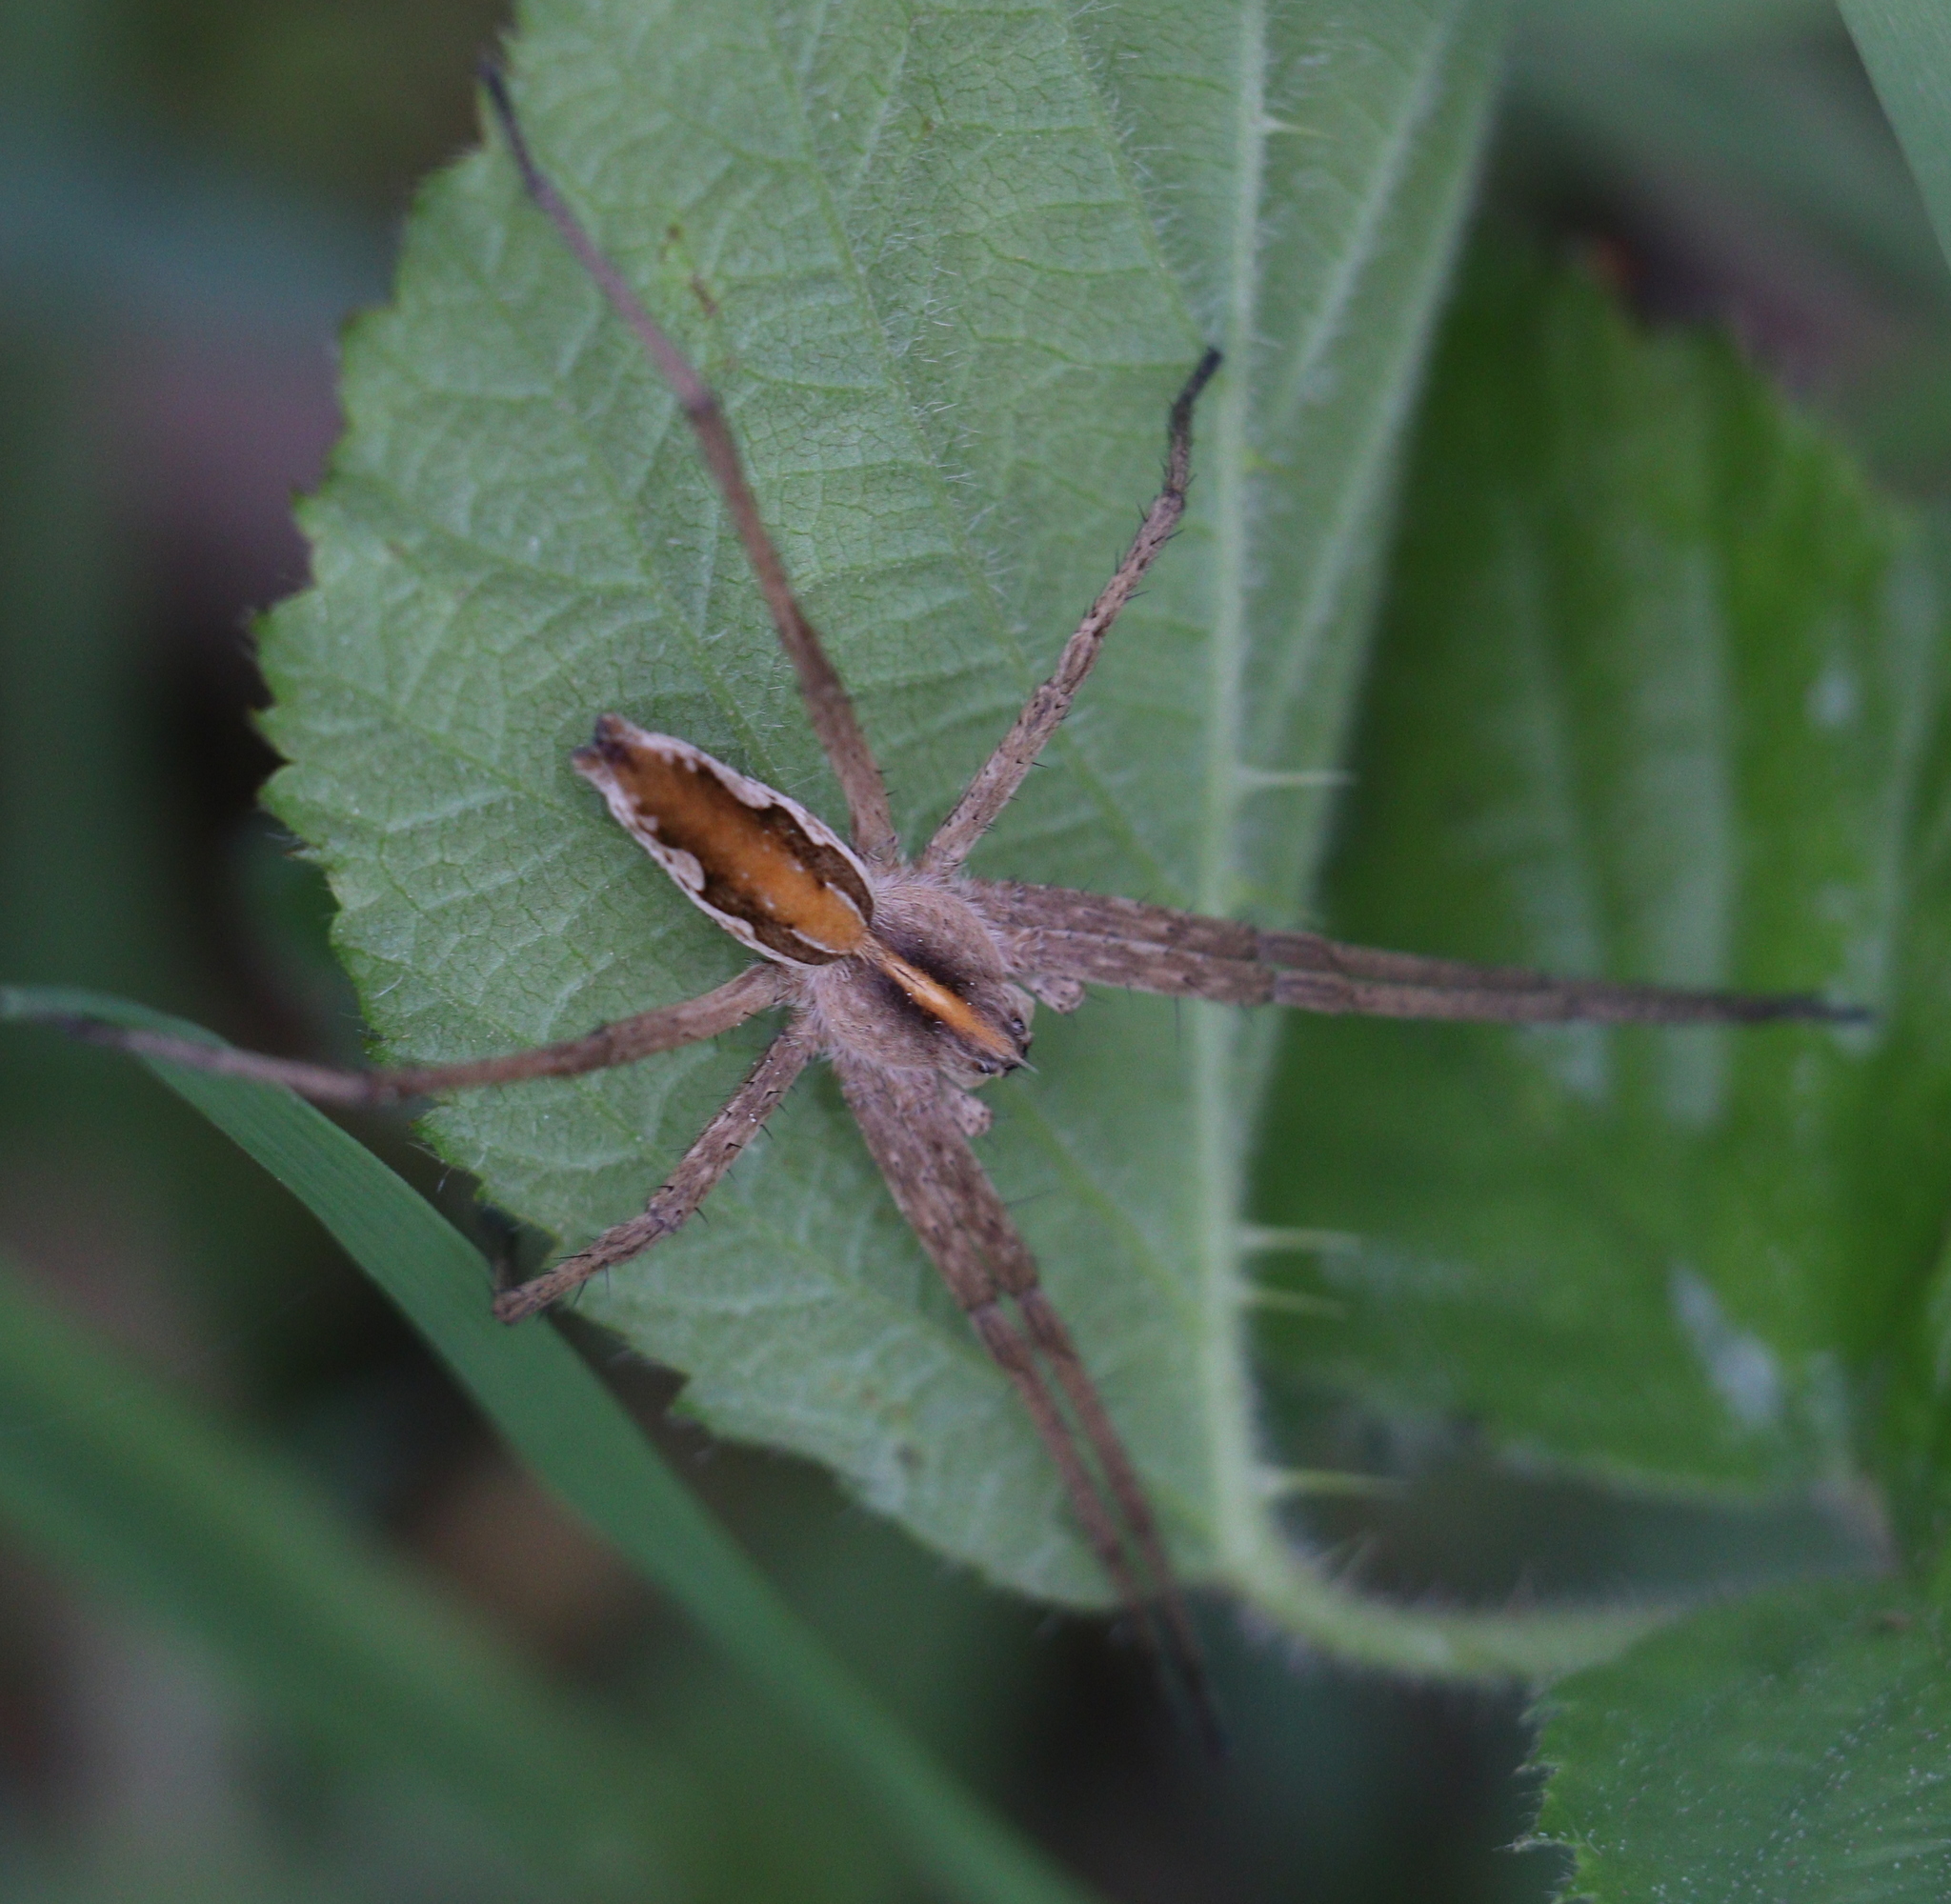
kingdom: Animalia
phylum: Arthropoda
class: Arachnida
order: Araneae
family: Pisauridae
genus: Pisaura
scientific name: Pisaura mirabilis
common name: Tent spider
